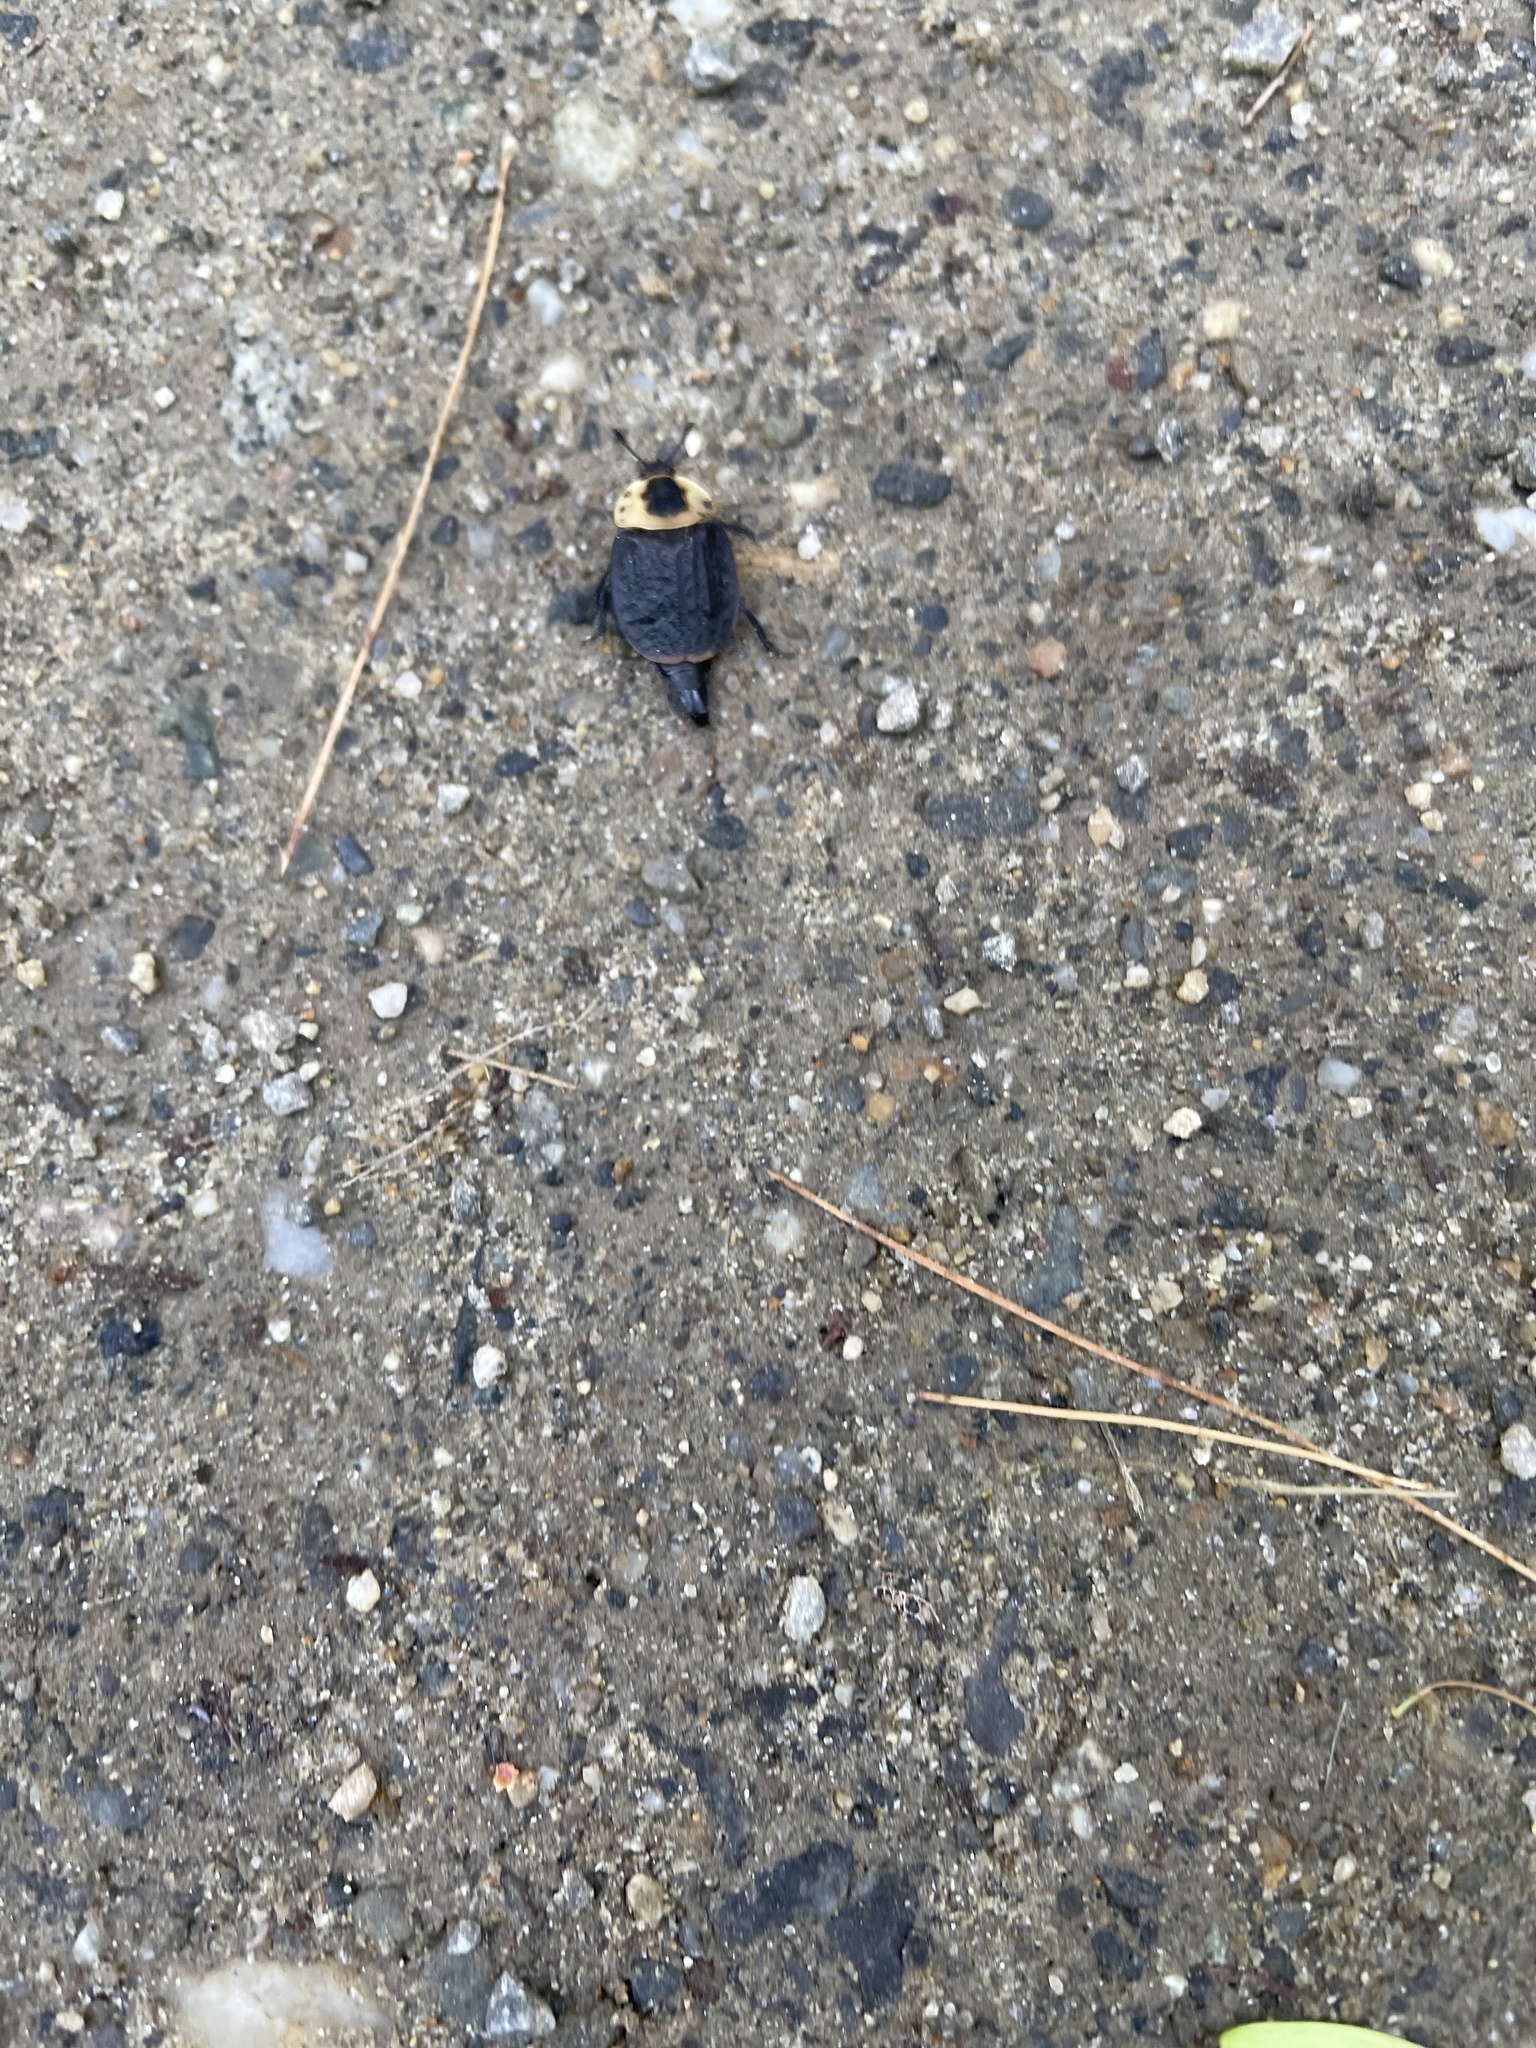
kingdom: Animalia
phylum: Arthropoda
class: Insecta
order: Coleoptera
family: Staphylinidae
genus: Necrophila
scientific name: Necrophila americana
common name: American carrion beetle
